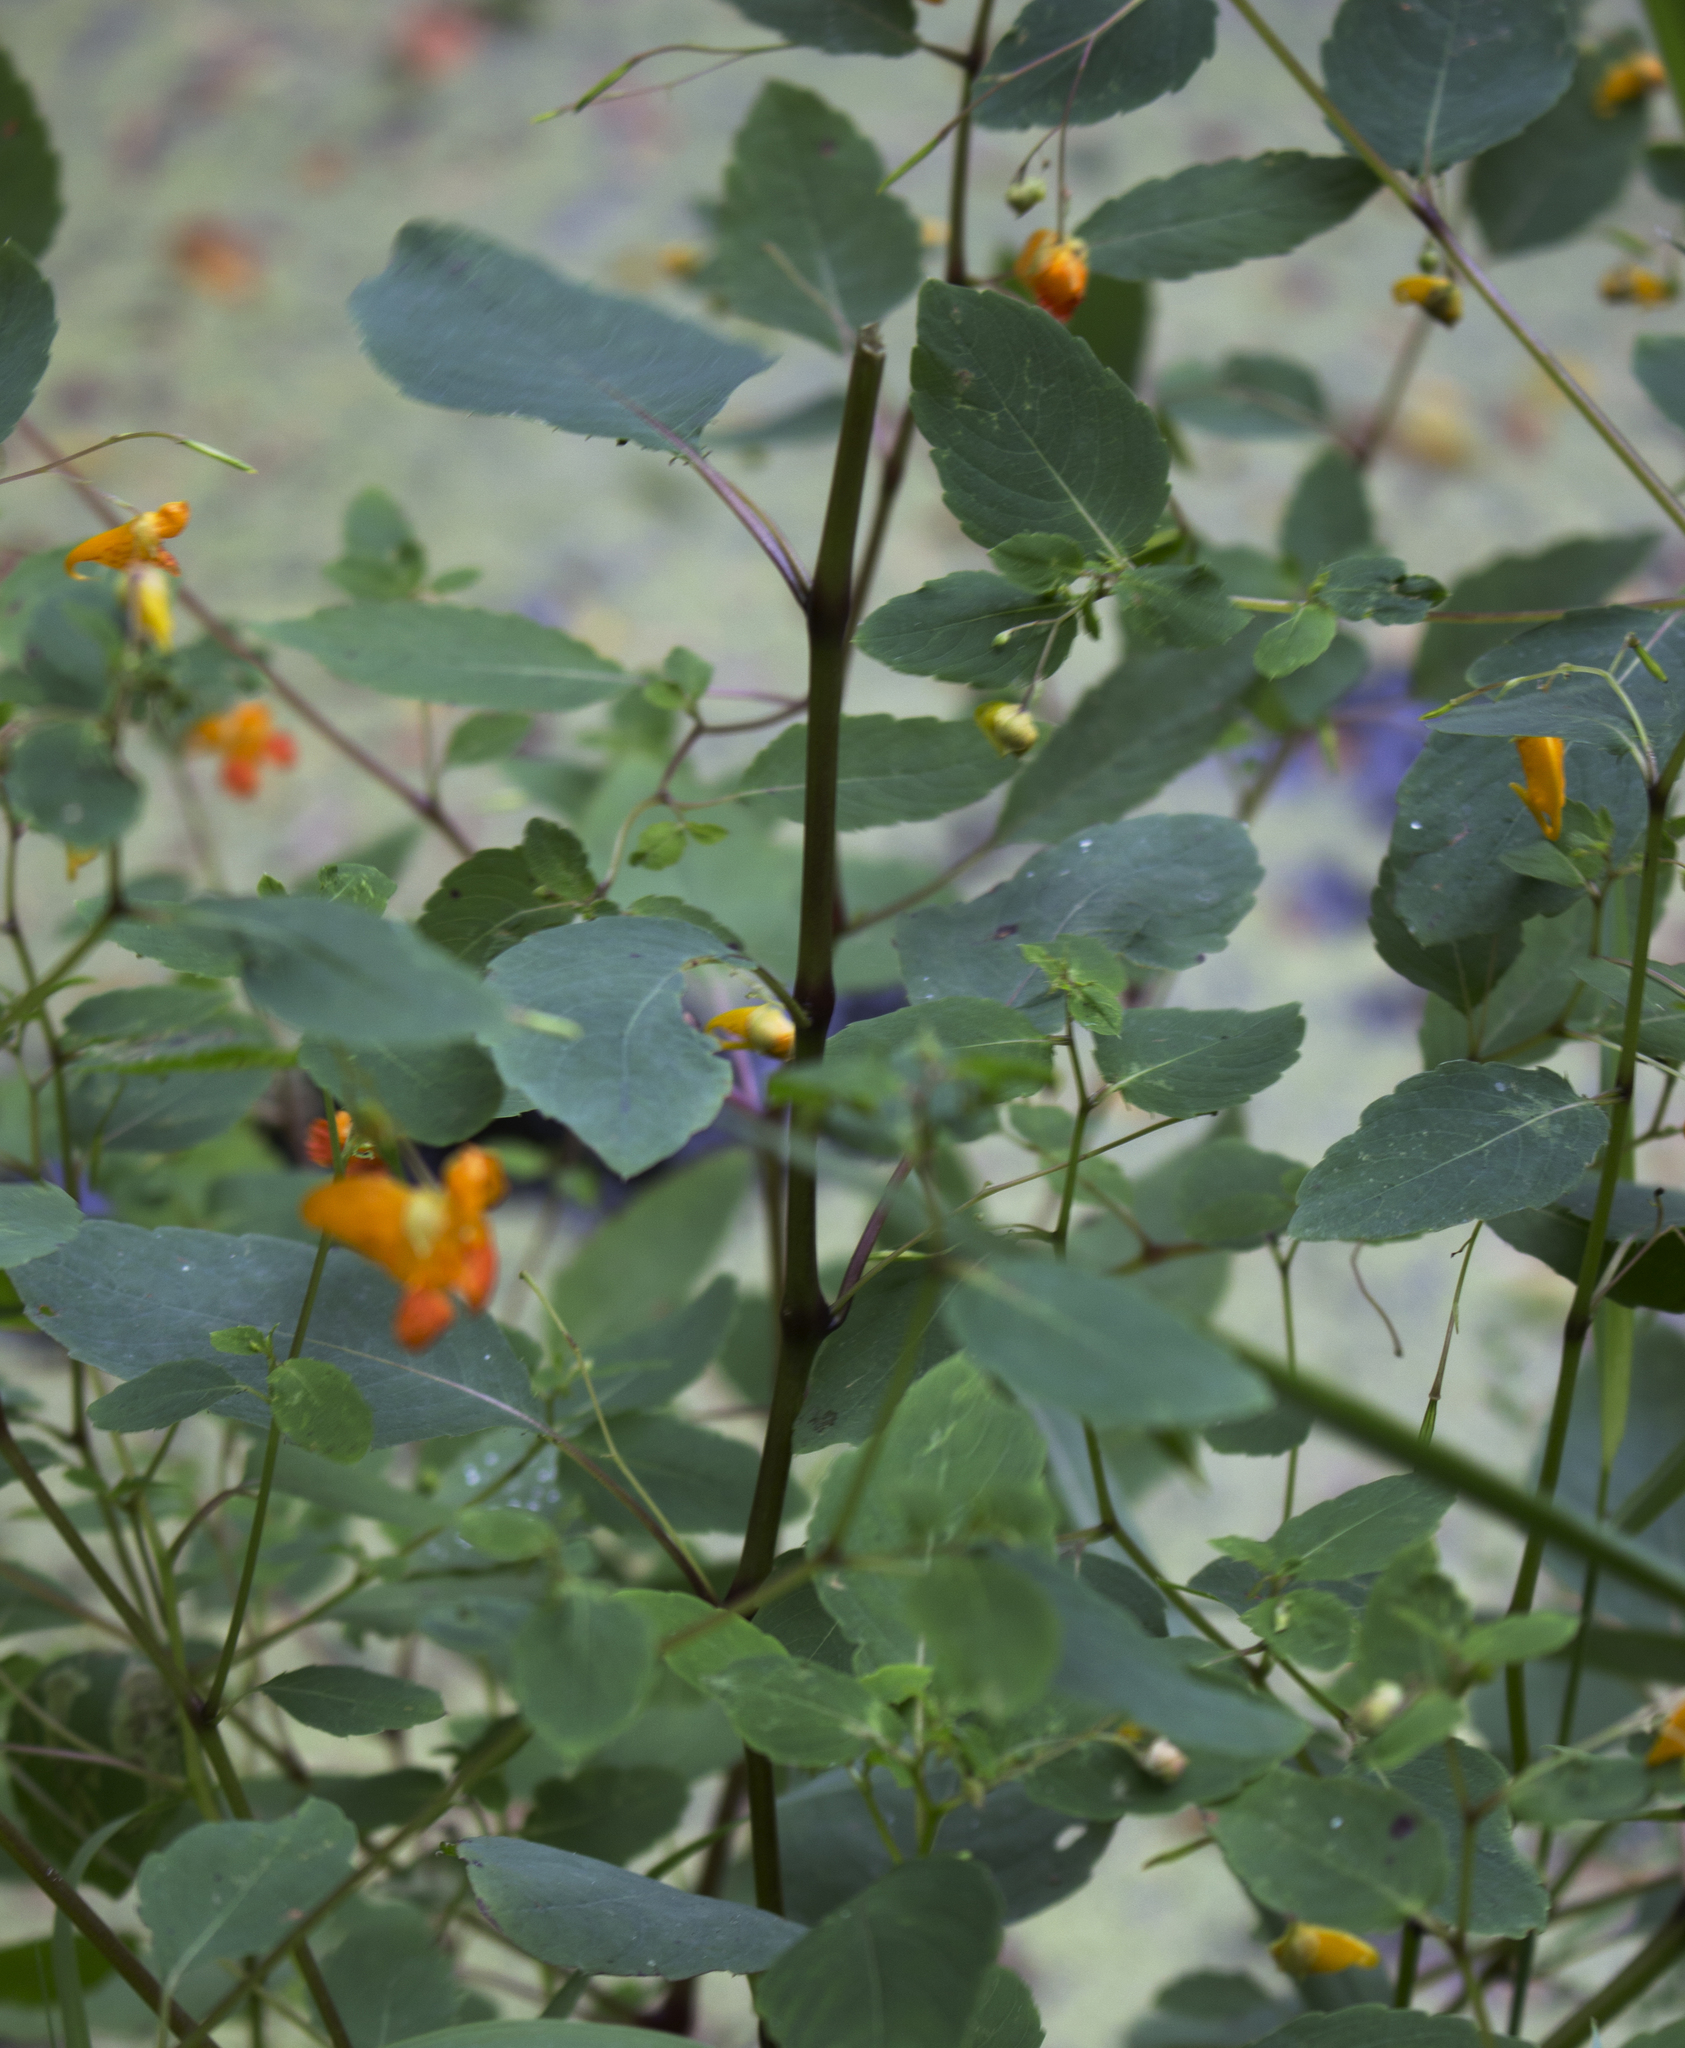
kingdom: Plantae
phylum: Tracheophyta
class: Magnoliopsida
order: Ericales
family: Balsaminaceae
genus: Impatiens
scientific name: Impatiens capensis
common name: Orange balsam
